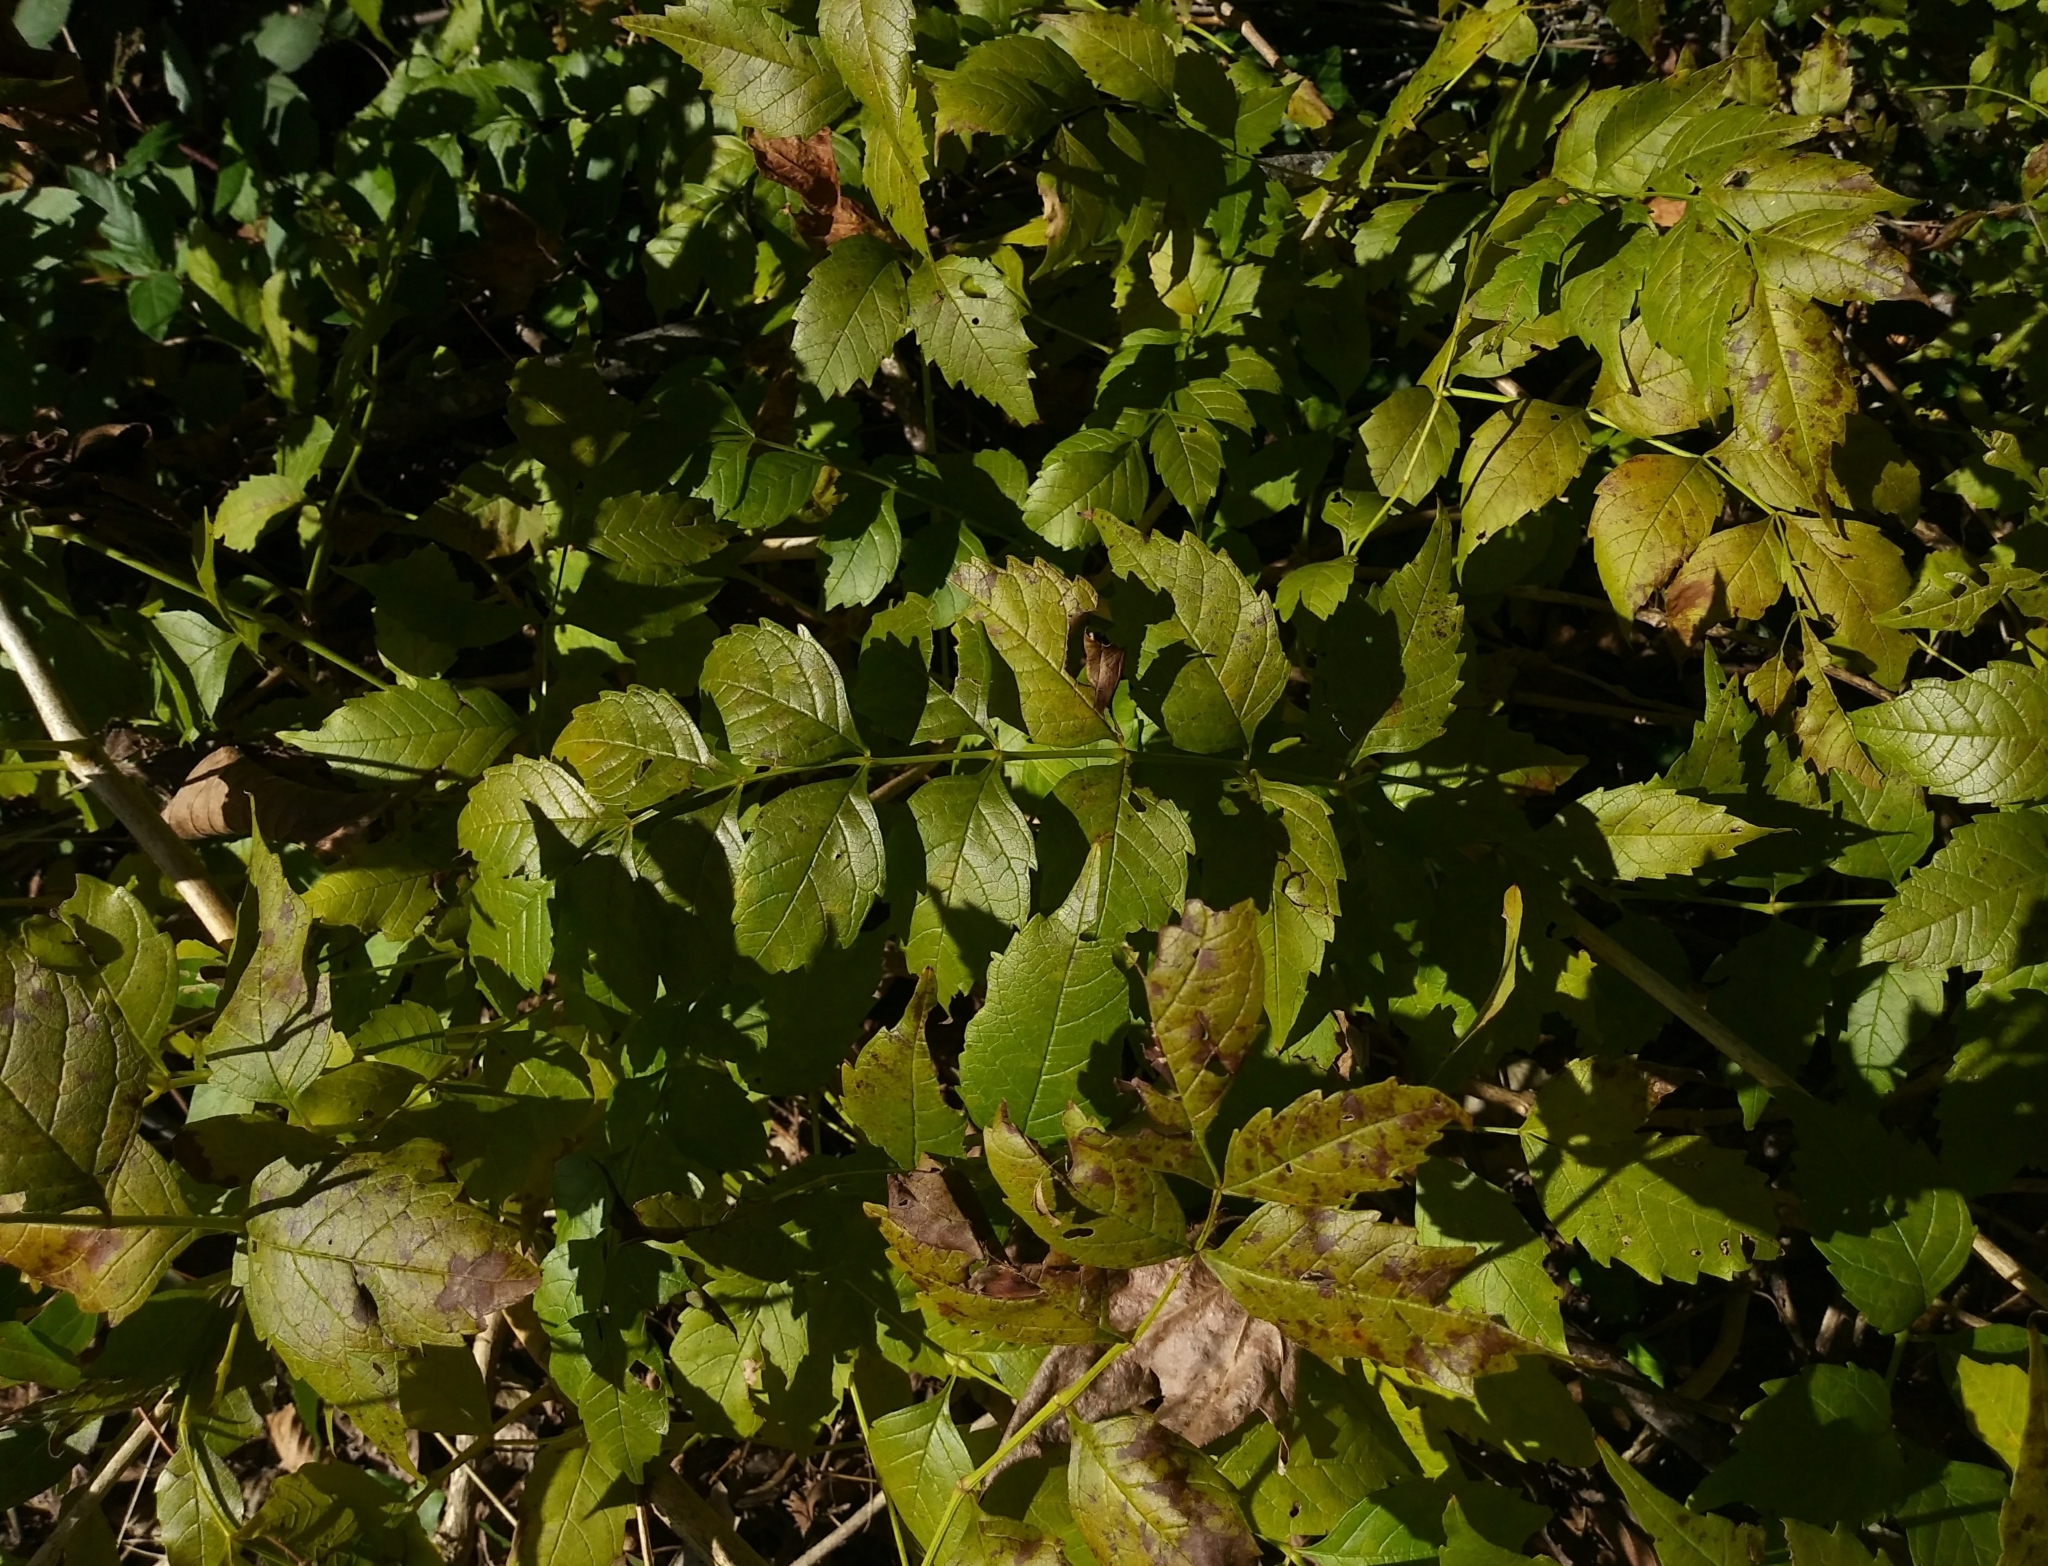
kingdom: Plantae
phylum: Tracheophyta
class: Magnoliopsida
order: Lamiales
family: Bignoniaceae
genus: Campsis
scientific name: Campsis radicans
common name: Trumpet-creeper
